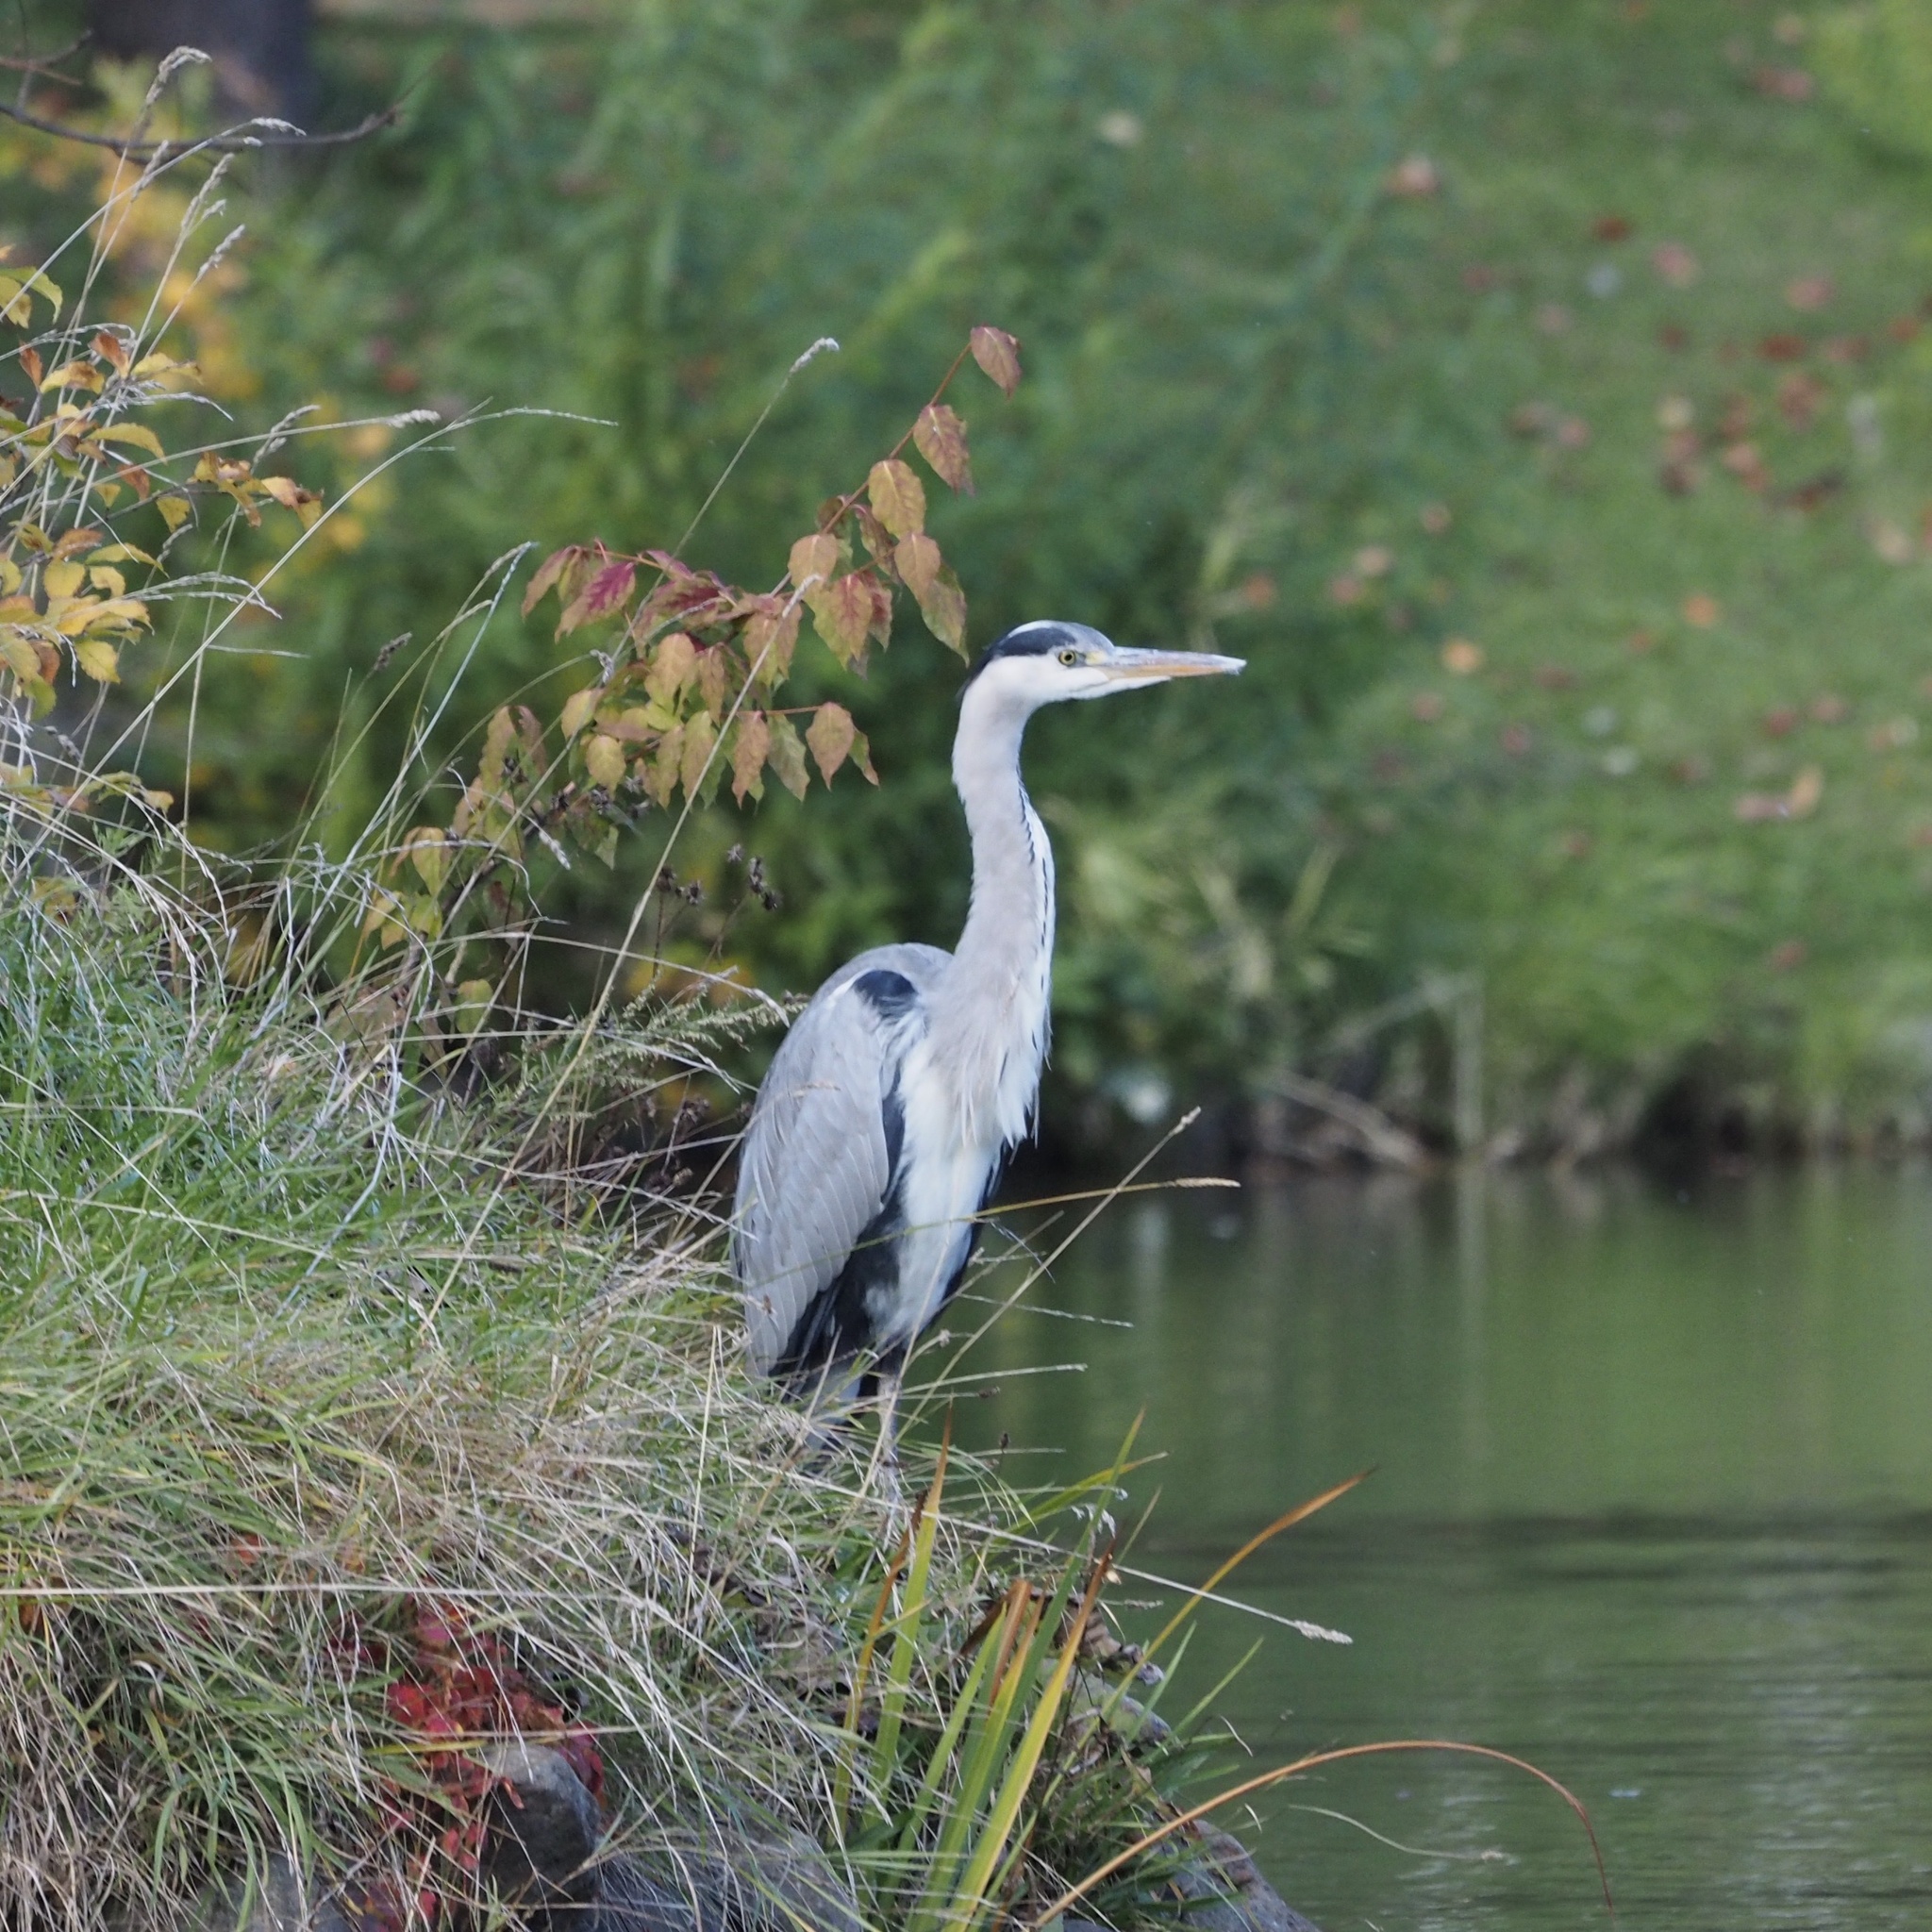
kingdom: Animalia
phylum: Chordata
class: Aves
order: Pelecaniformes
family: Ardeidae
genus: Ardea
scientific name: Ardea cinerea
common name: Grey heron
